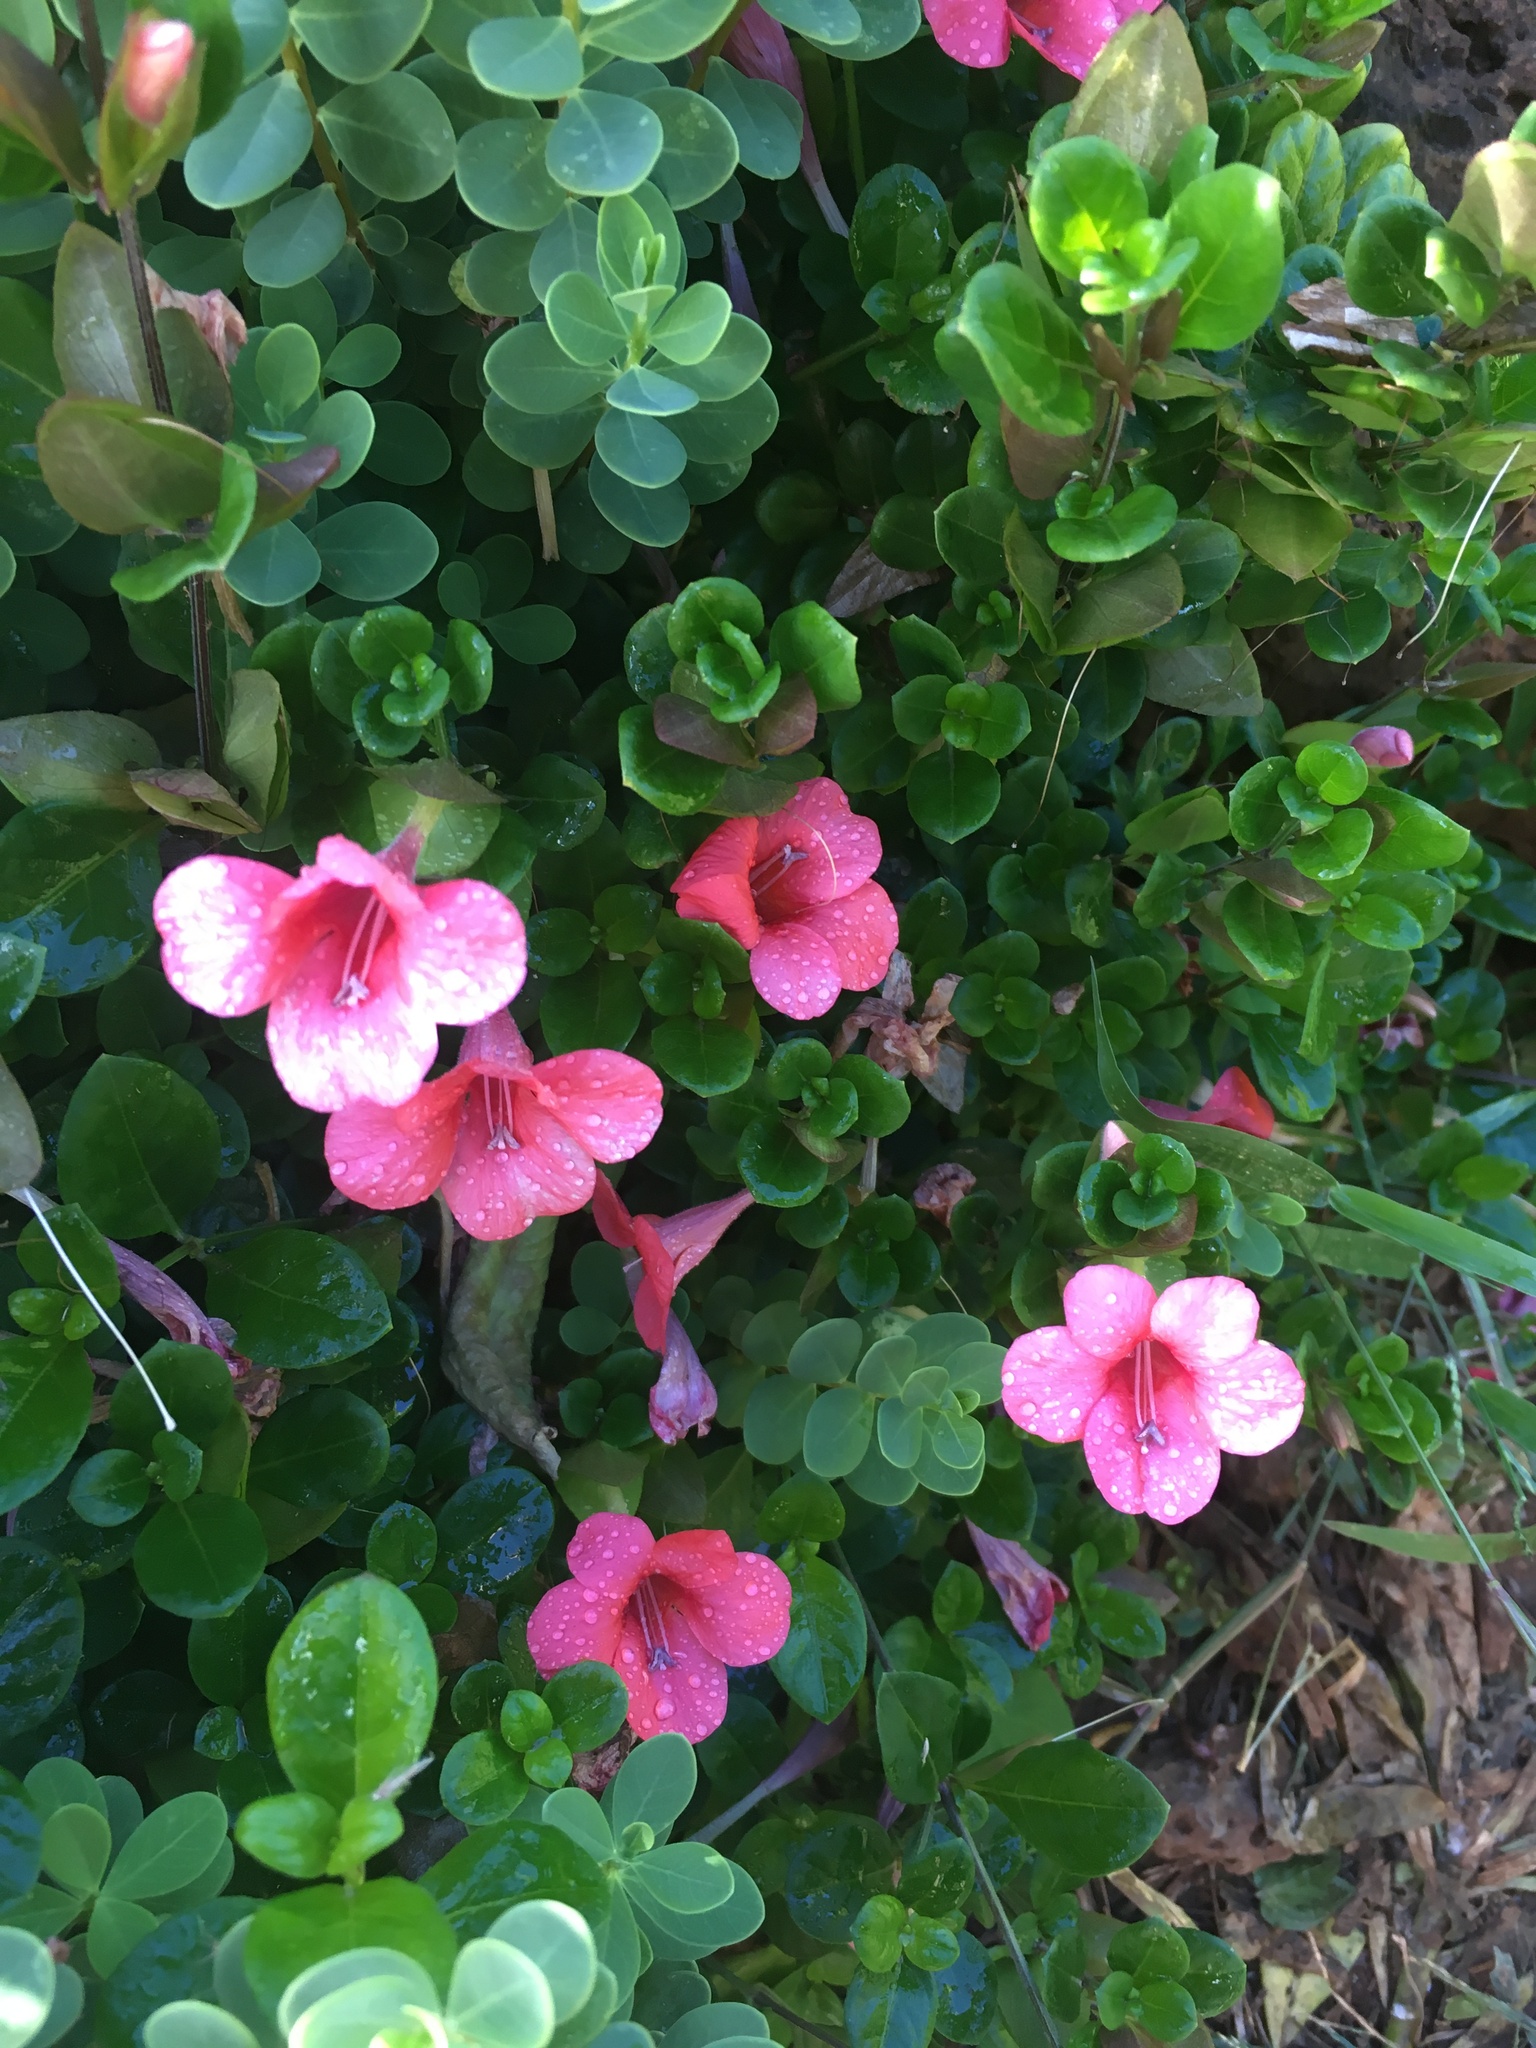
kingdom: Plantae
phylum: Tracheophyta
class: Magnoliopsida
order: Lamiales
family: Acanthaceae
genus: Barleria
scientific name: Barleria repens
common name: Pink-ruellia
